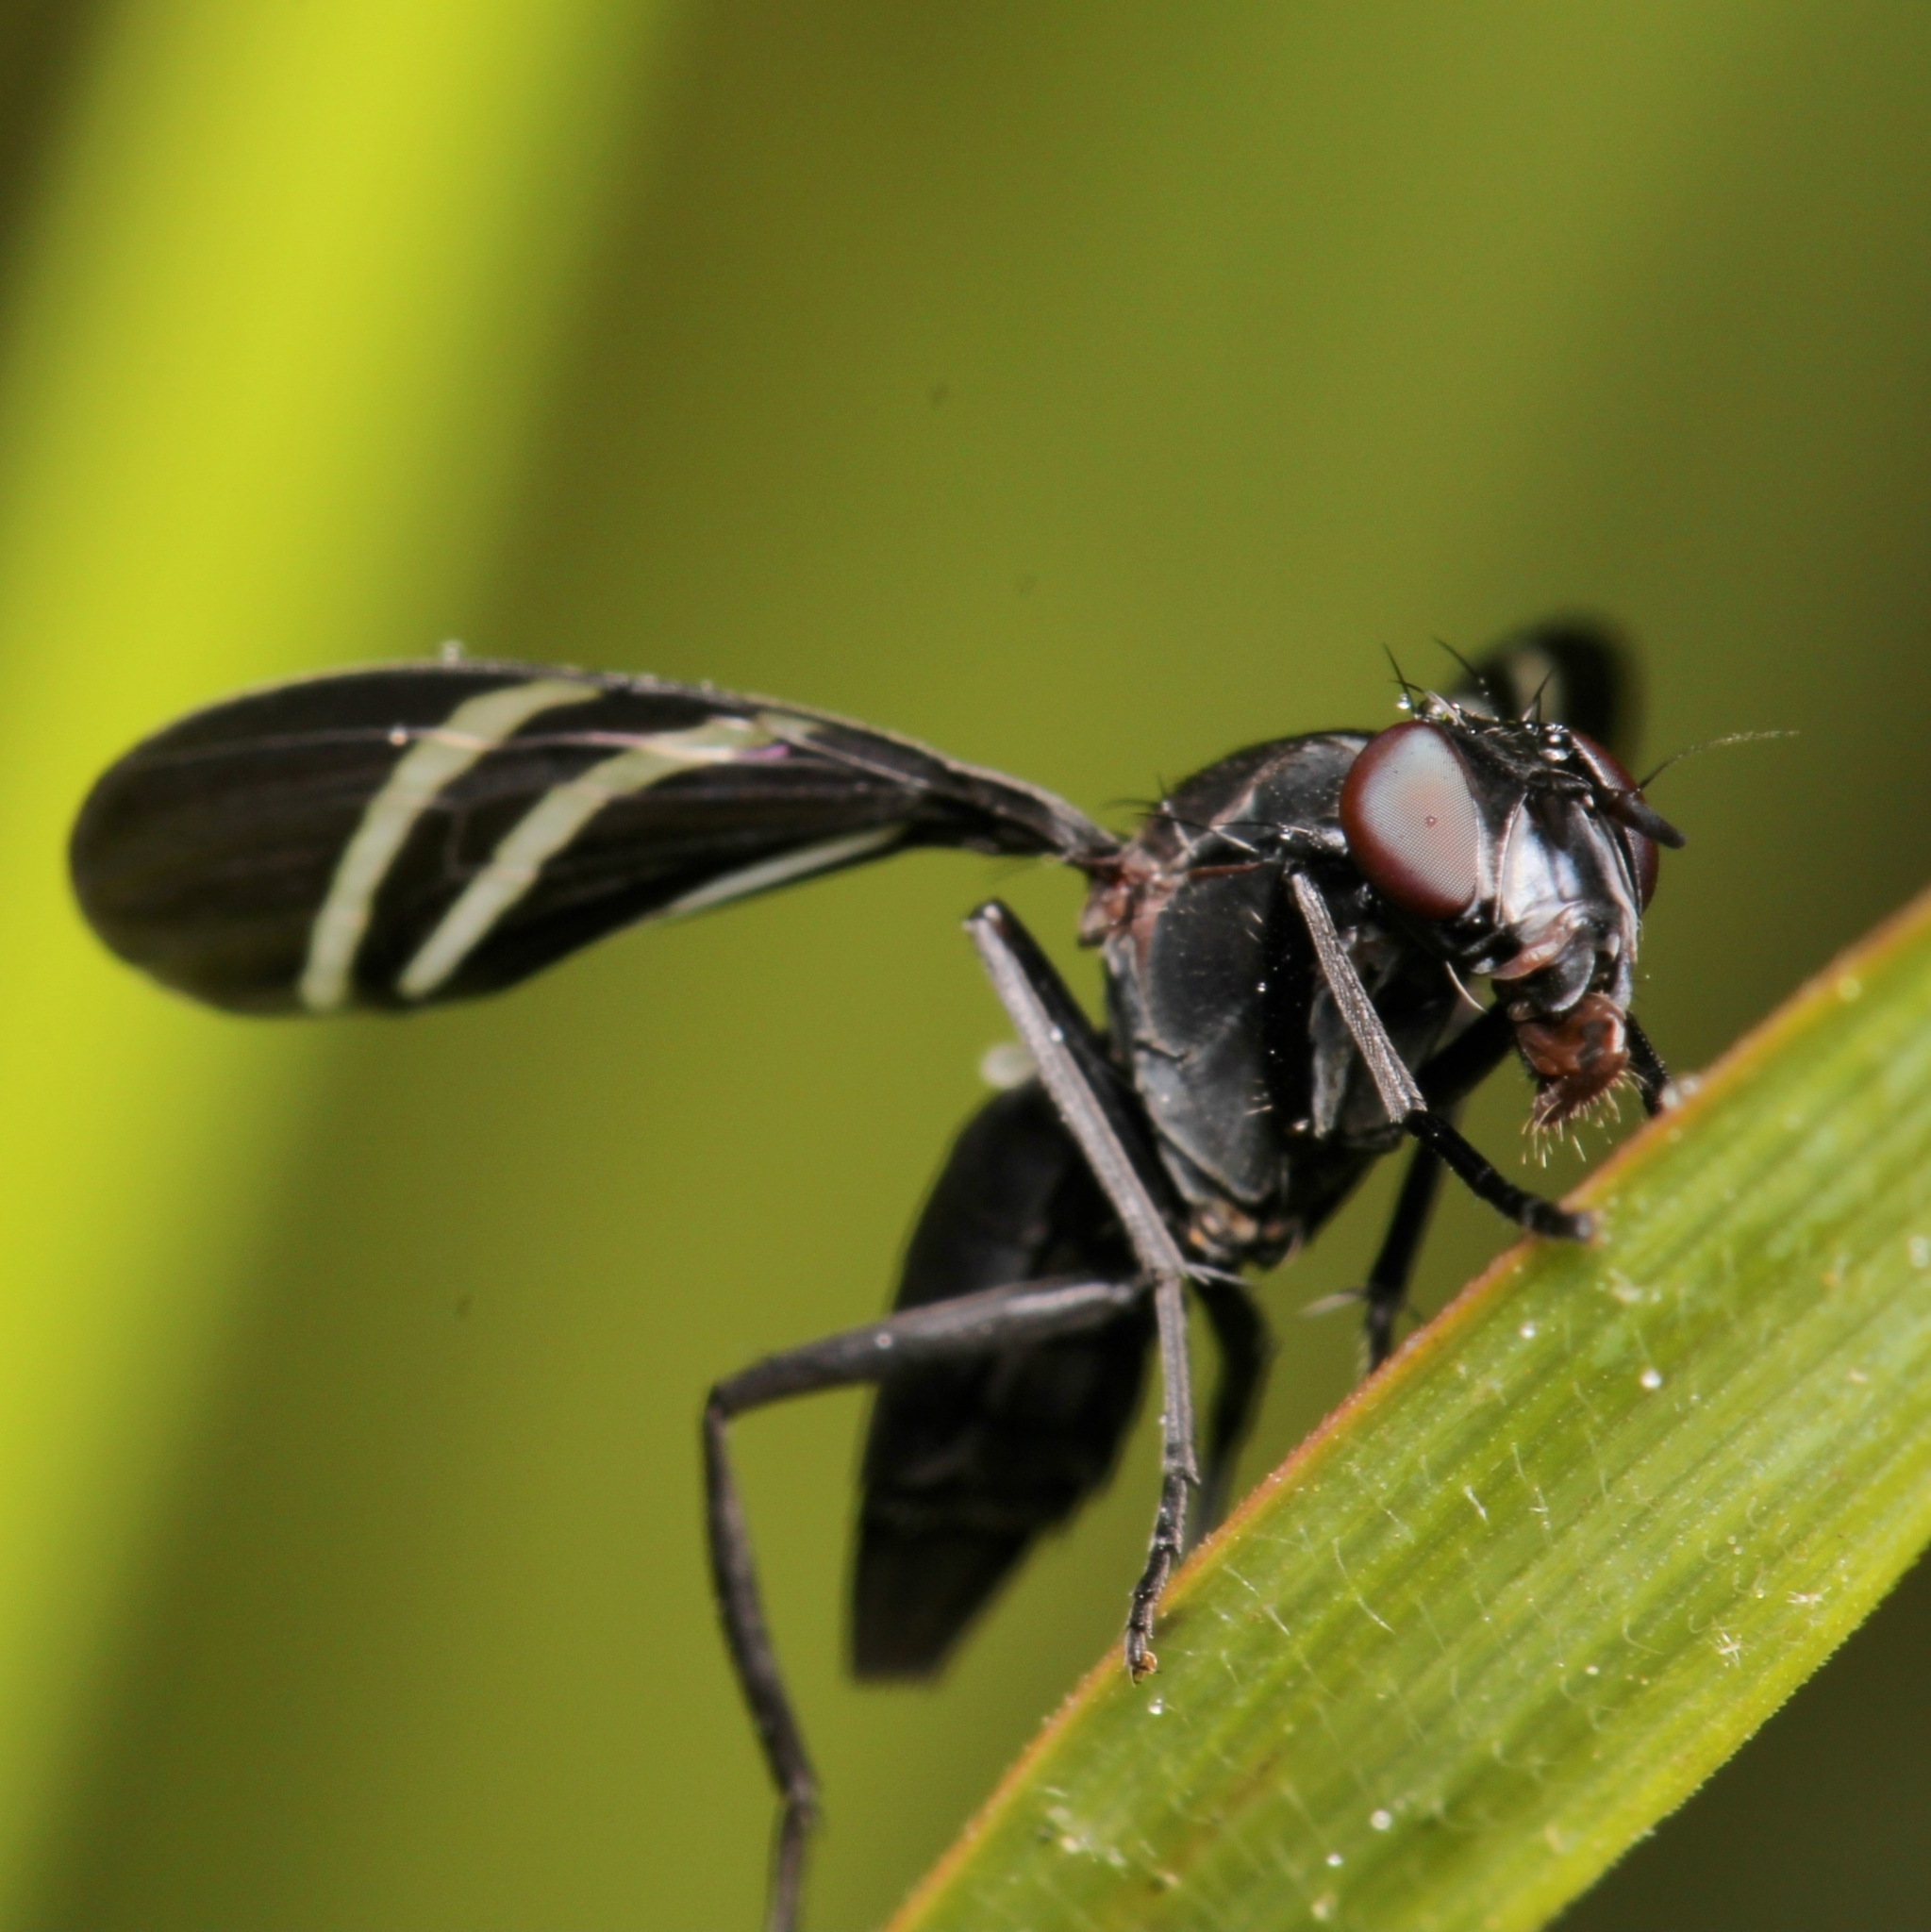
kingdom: Animalia
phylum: Arthropoda
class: Insecta
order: Diptera
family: Ulidiidae
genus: Tritoxa
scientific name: Tritoxa flexa
